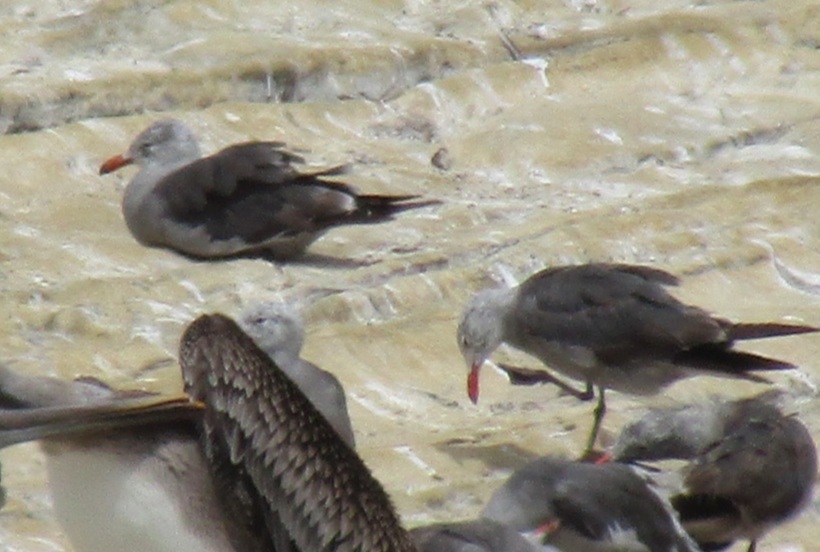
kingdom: Animalia
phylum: Chordata
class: Aves
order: Charadriiformes
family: Laridae
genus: Larus
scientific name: Larus heermanni
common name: Heermann's gull
